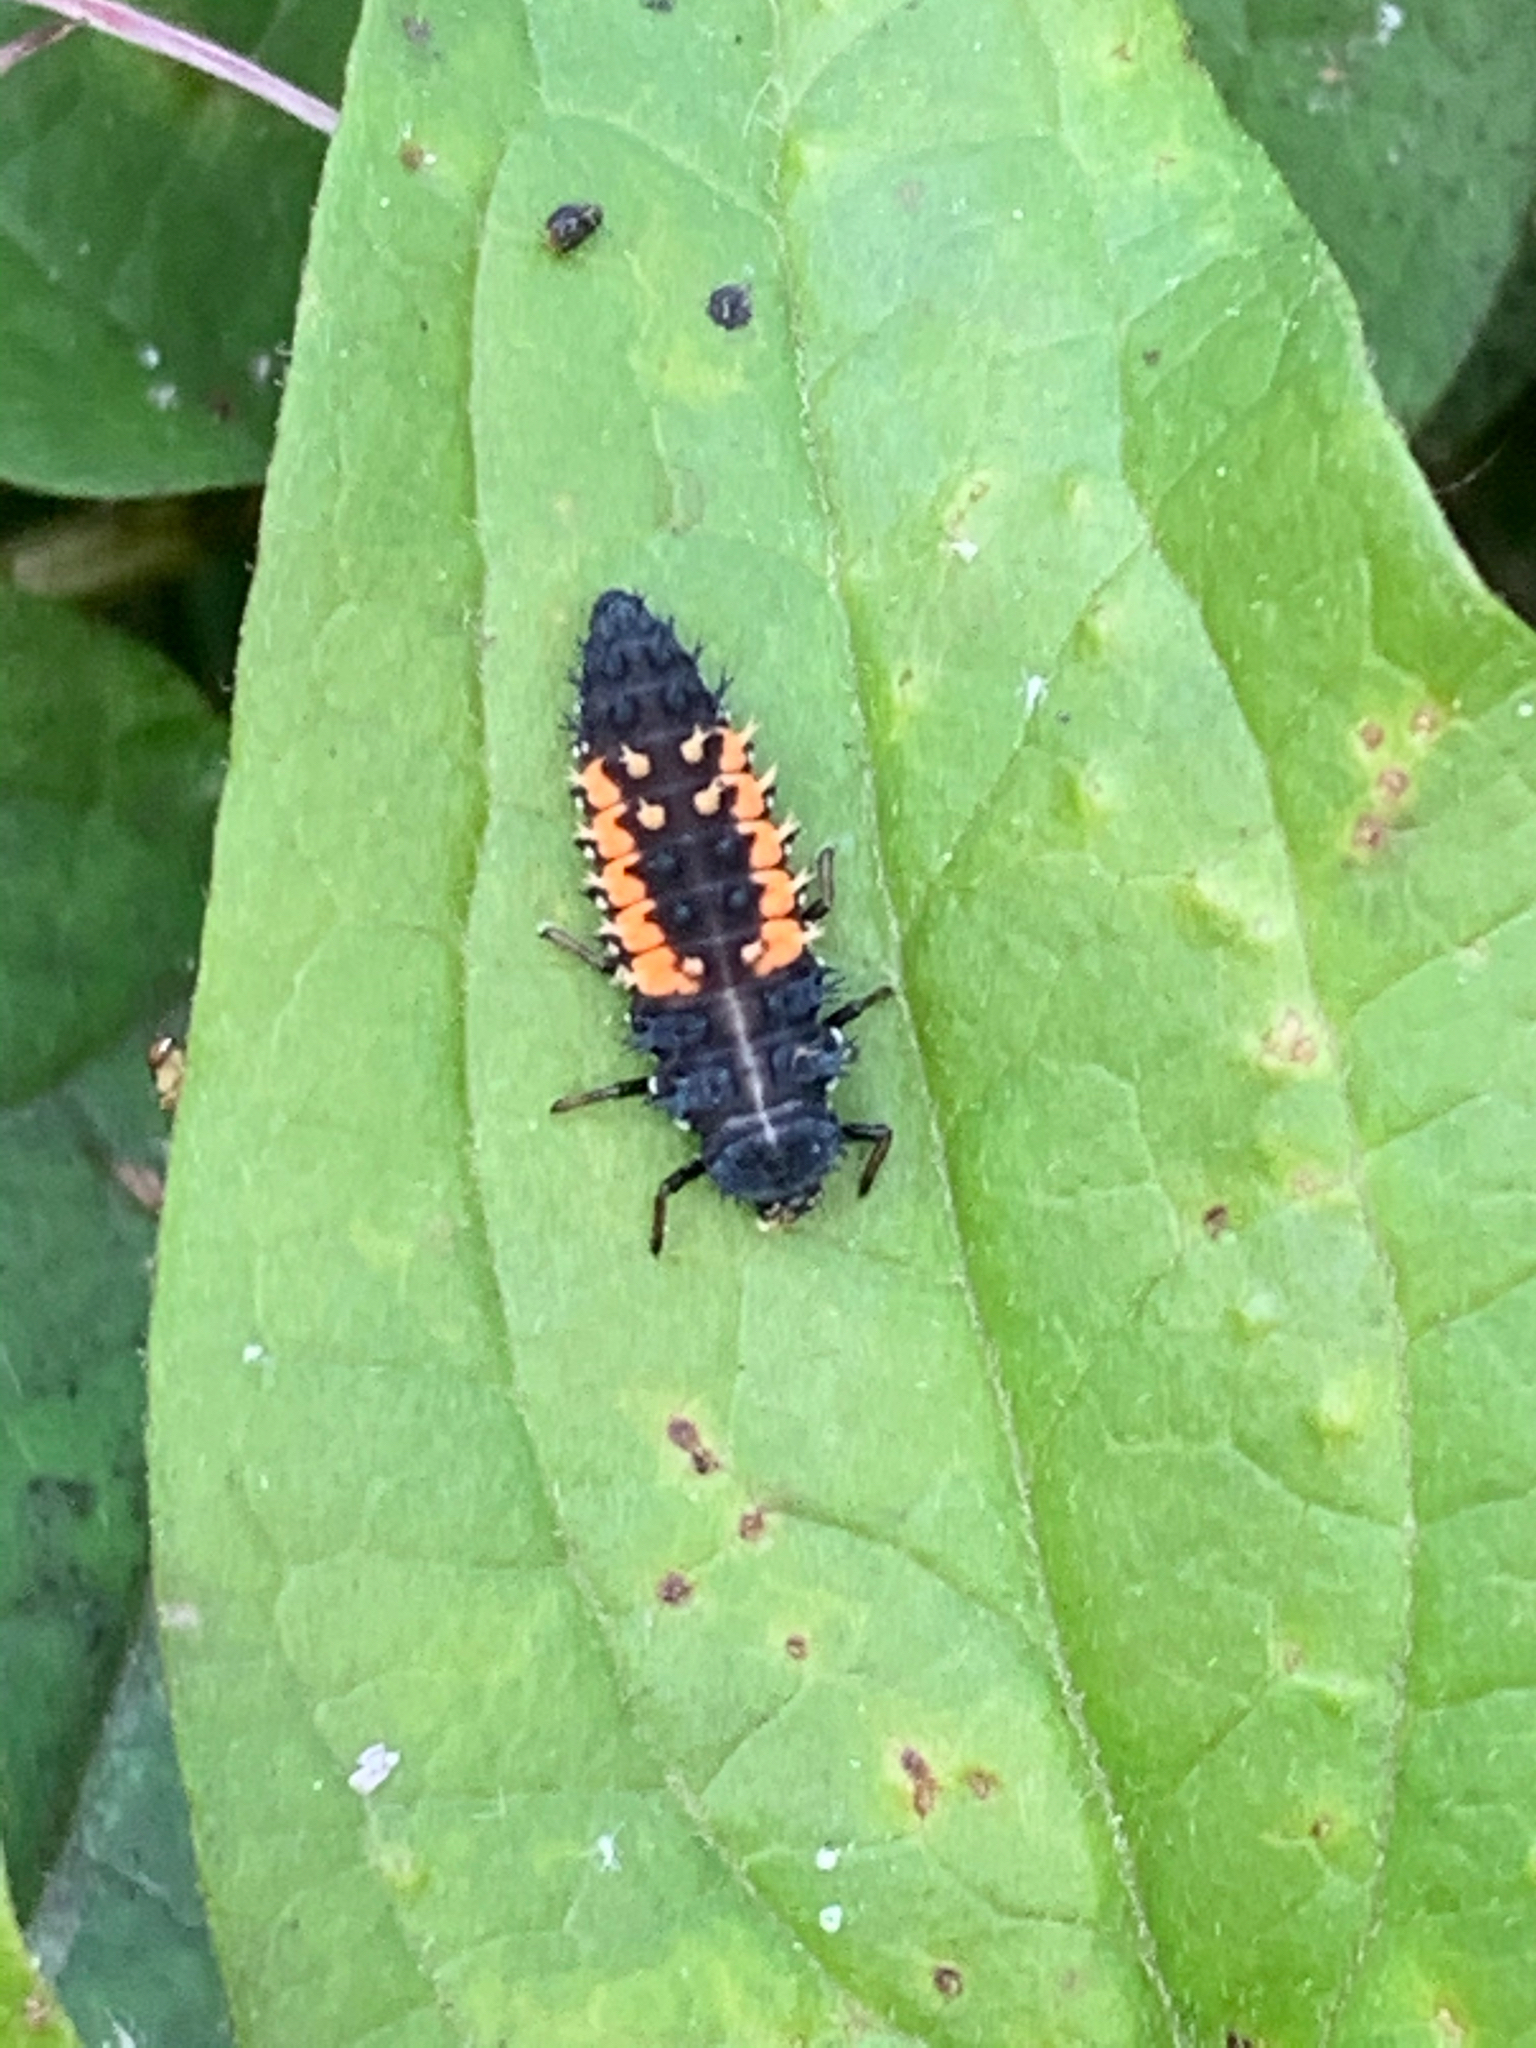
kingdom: Animalia
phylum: Arthropoda
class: Insecta
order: Coleoptera
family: Coccinellidae
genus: Harmonia
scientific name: Harmonia axyridis
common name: Harlequin ladybird
